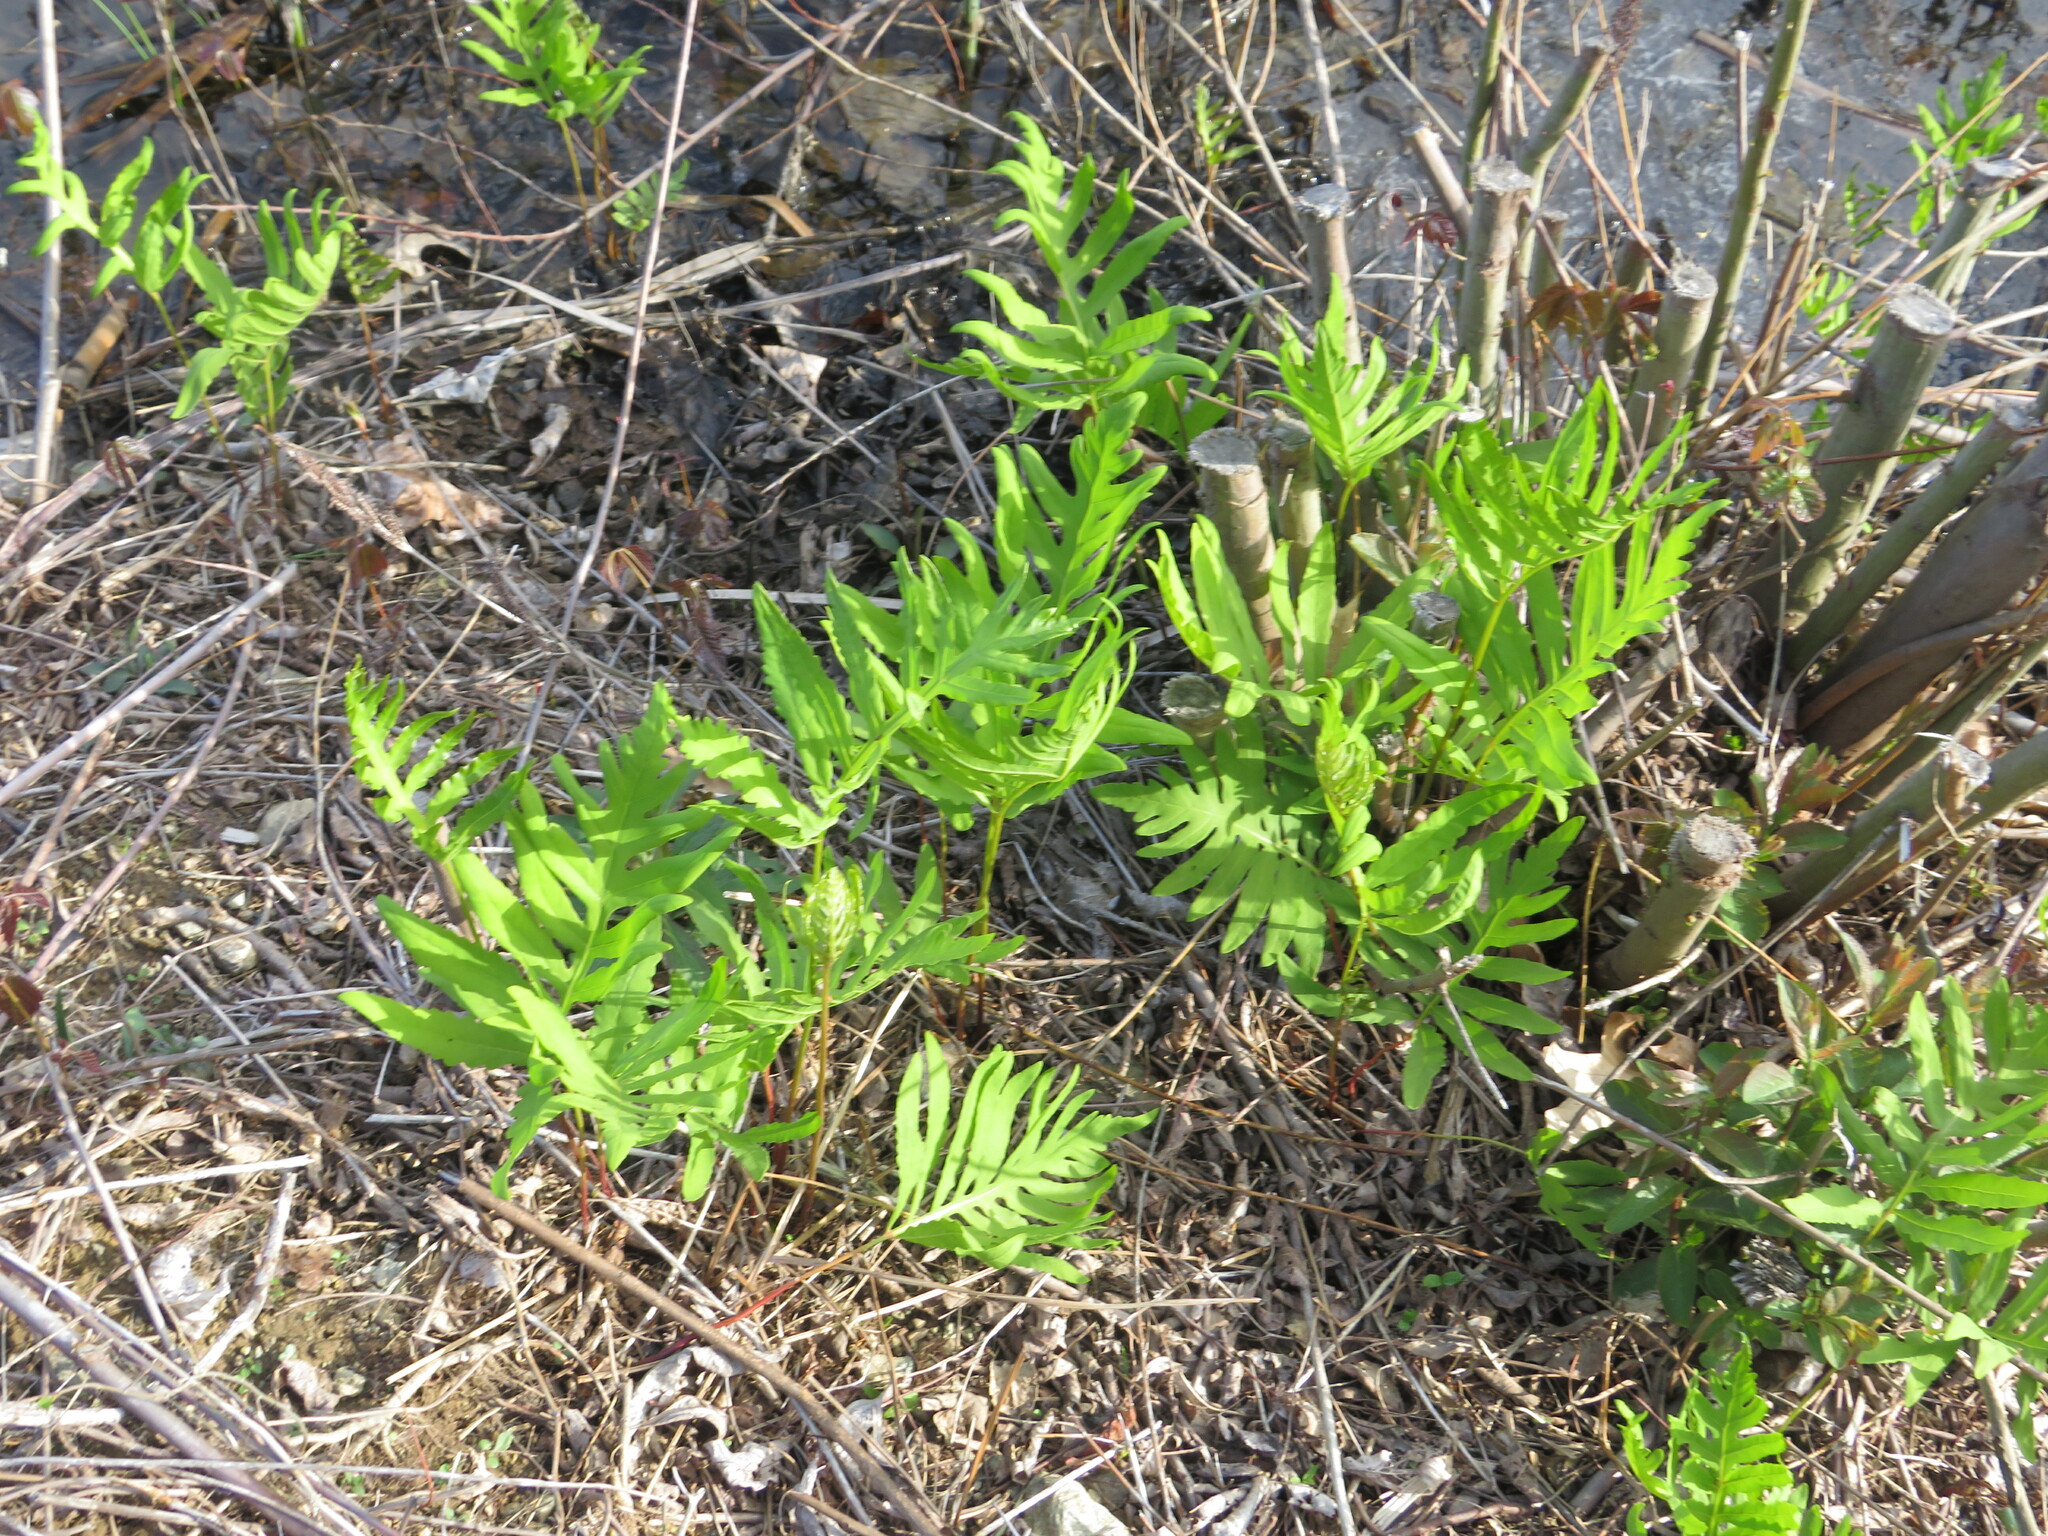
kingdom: Plantae
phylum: Tracheophyta
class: Polypodiopsida
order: Polypodiales
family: Onocleaceae
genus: Onoclea
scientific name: Onoclea sensibilis
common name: Sensitive fern
